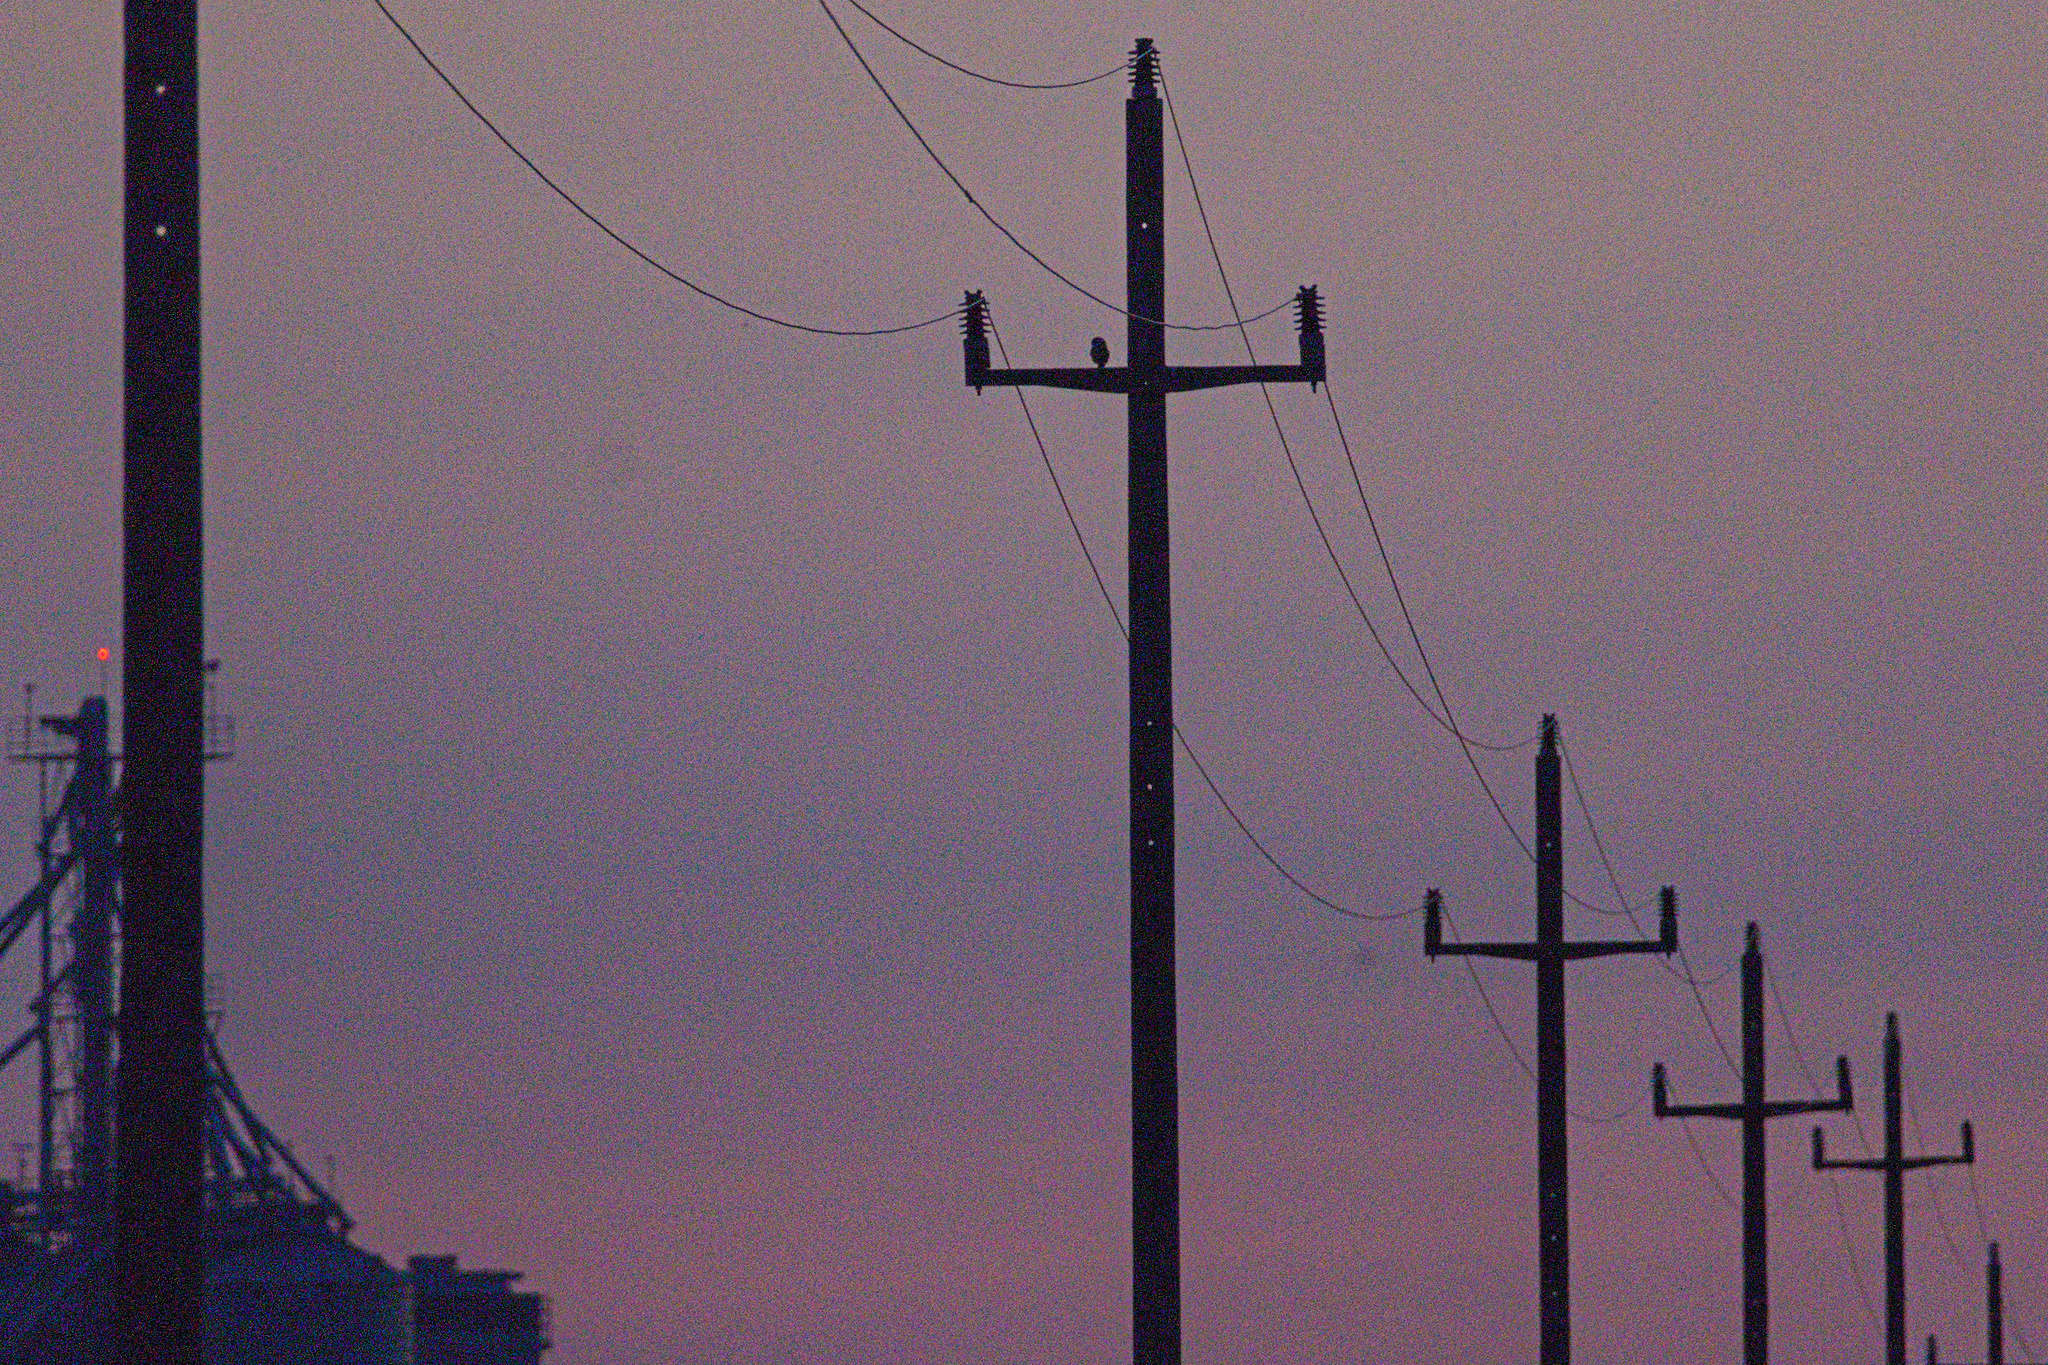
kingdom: Animalia
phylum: Chordata
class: Aves
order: Strigiformes
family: Strigidae
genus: Athene
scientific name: Athene noctua
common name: Little owl
